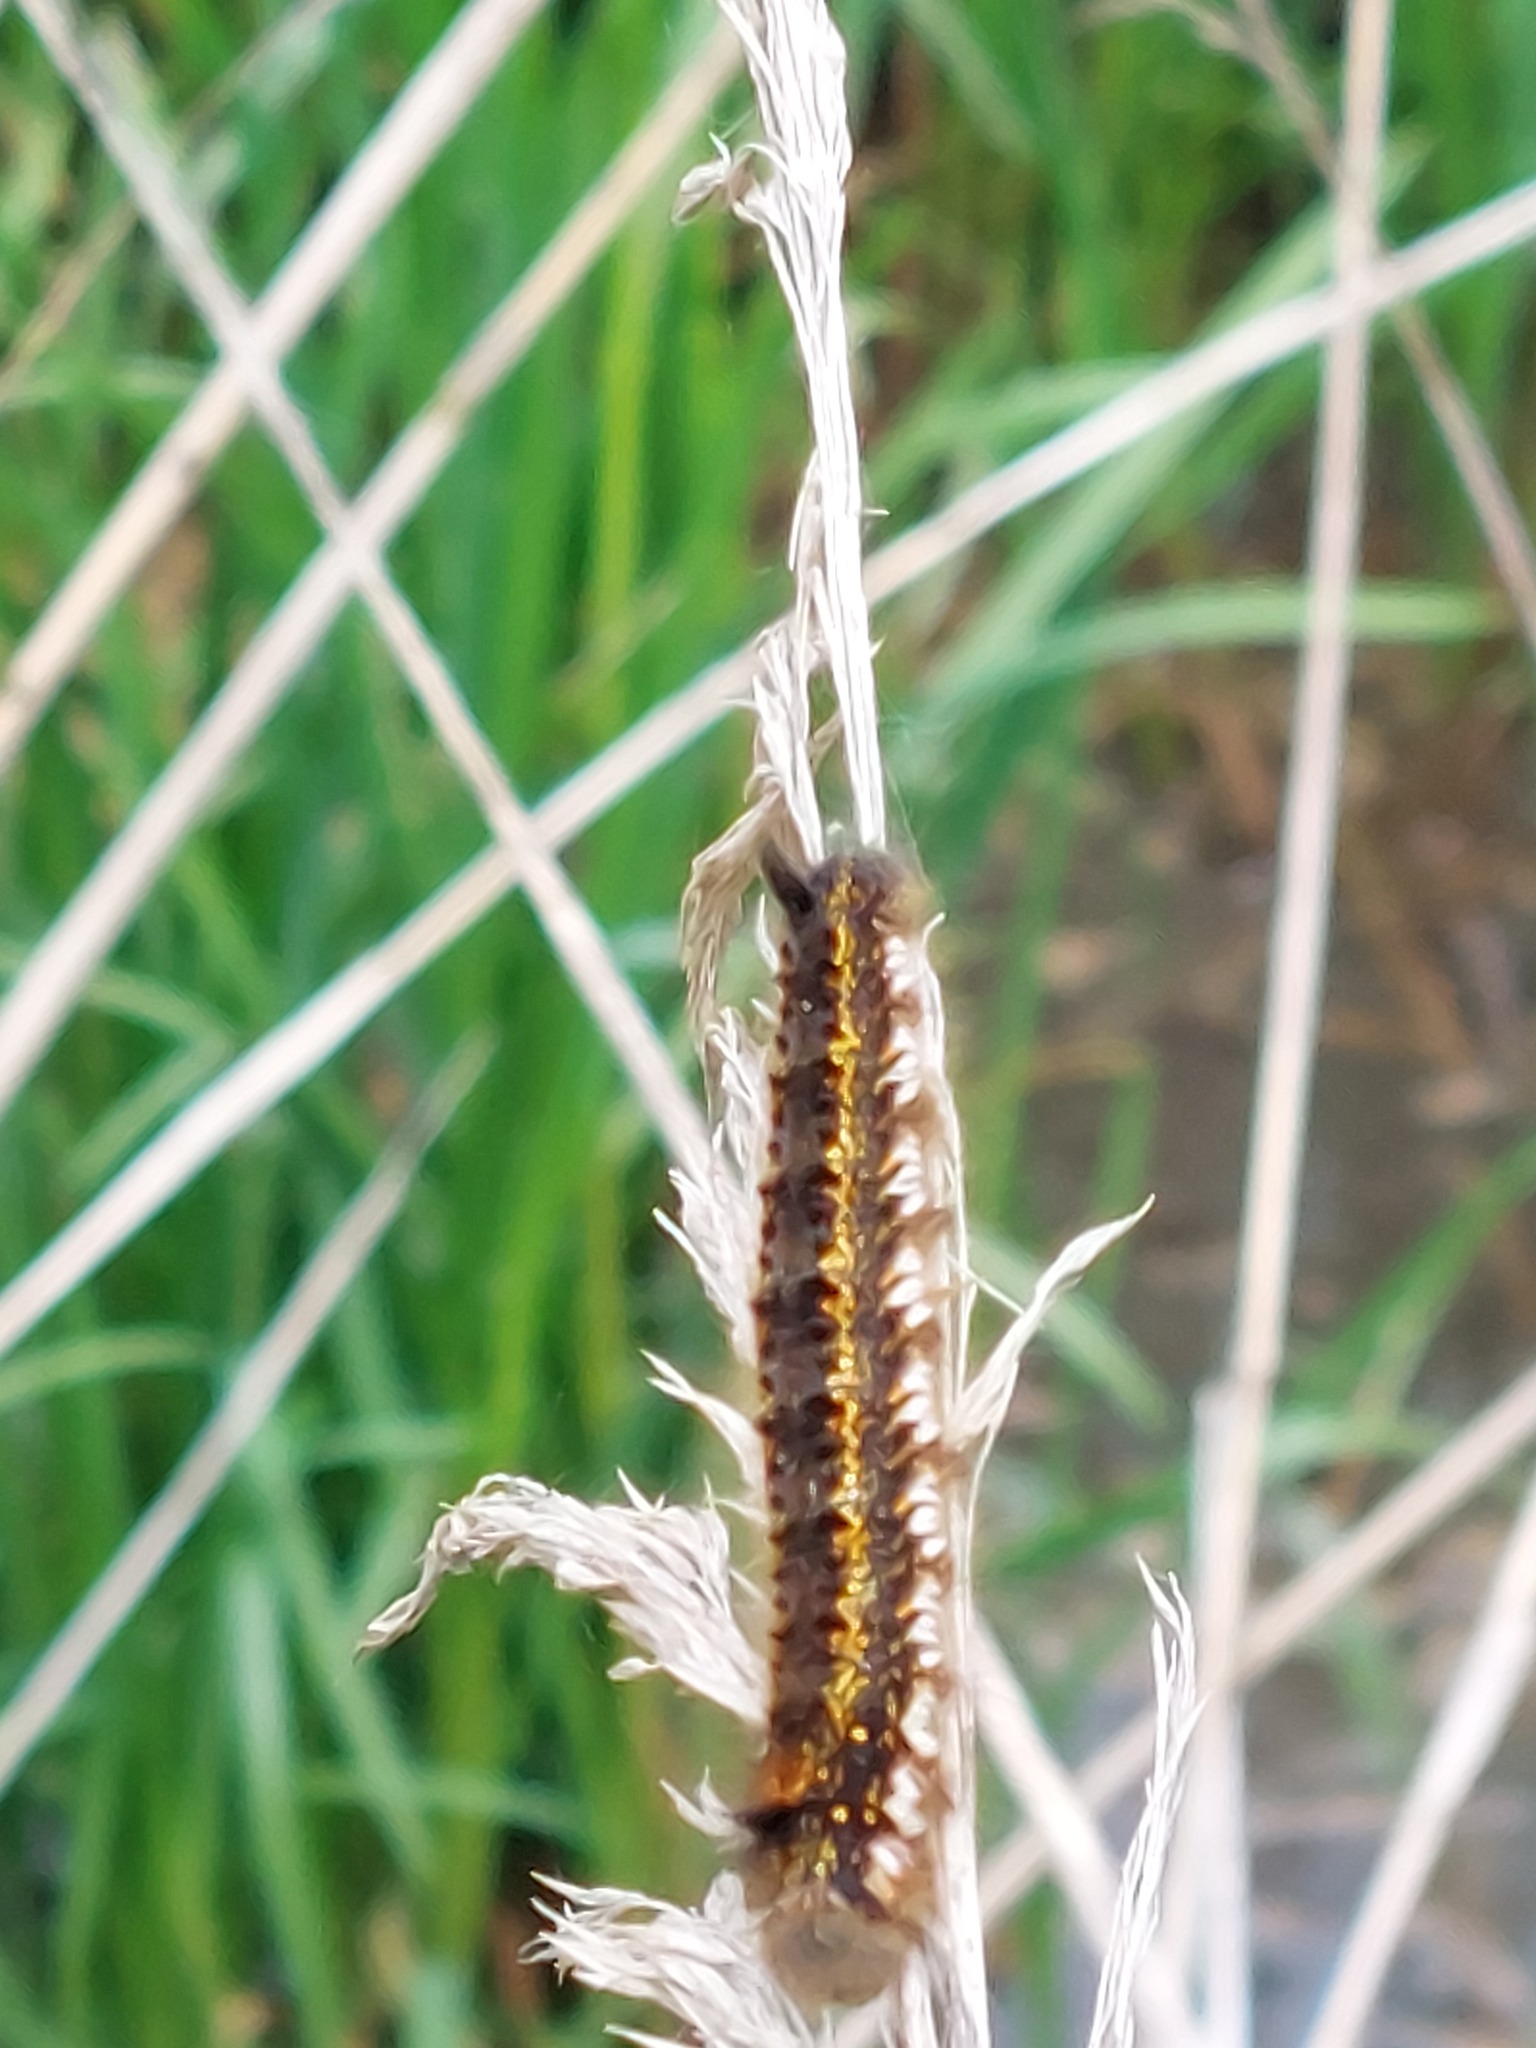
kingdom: Animalia
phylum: Arthropoda
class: Insecta
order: Lepidoptera
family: Lasiocampidae
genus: Euthrix
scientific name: Euthrix potatoria
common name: Drinker
